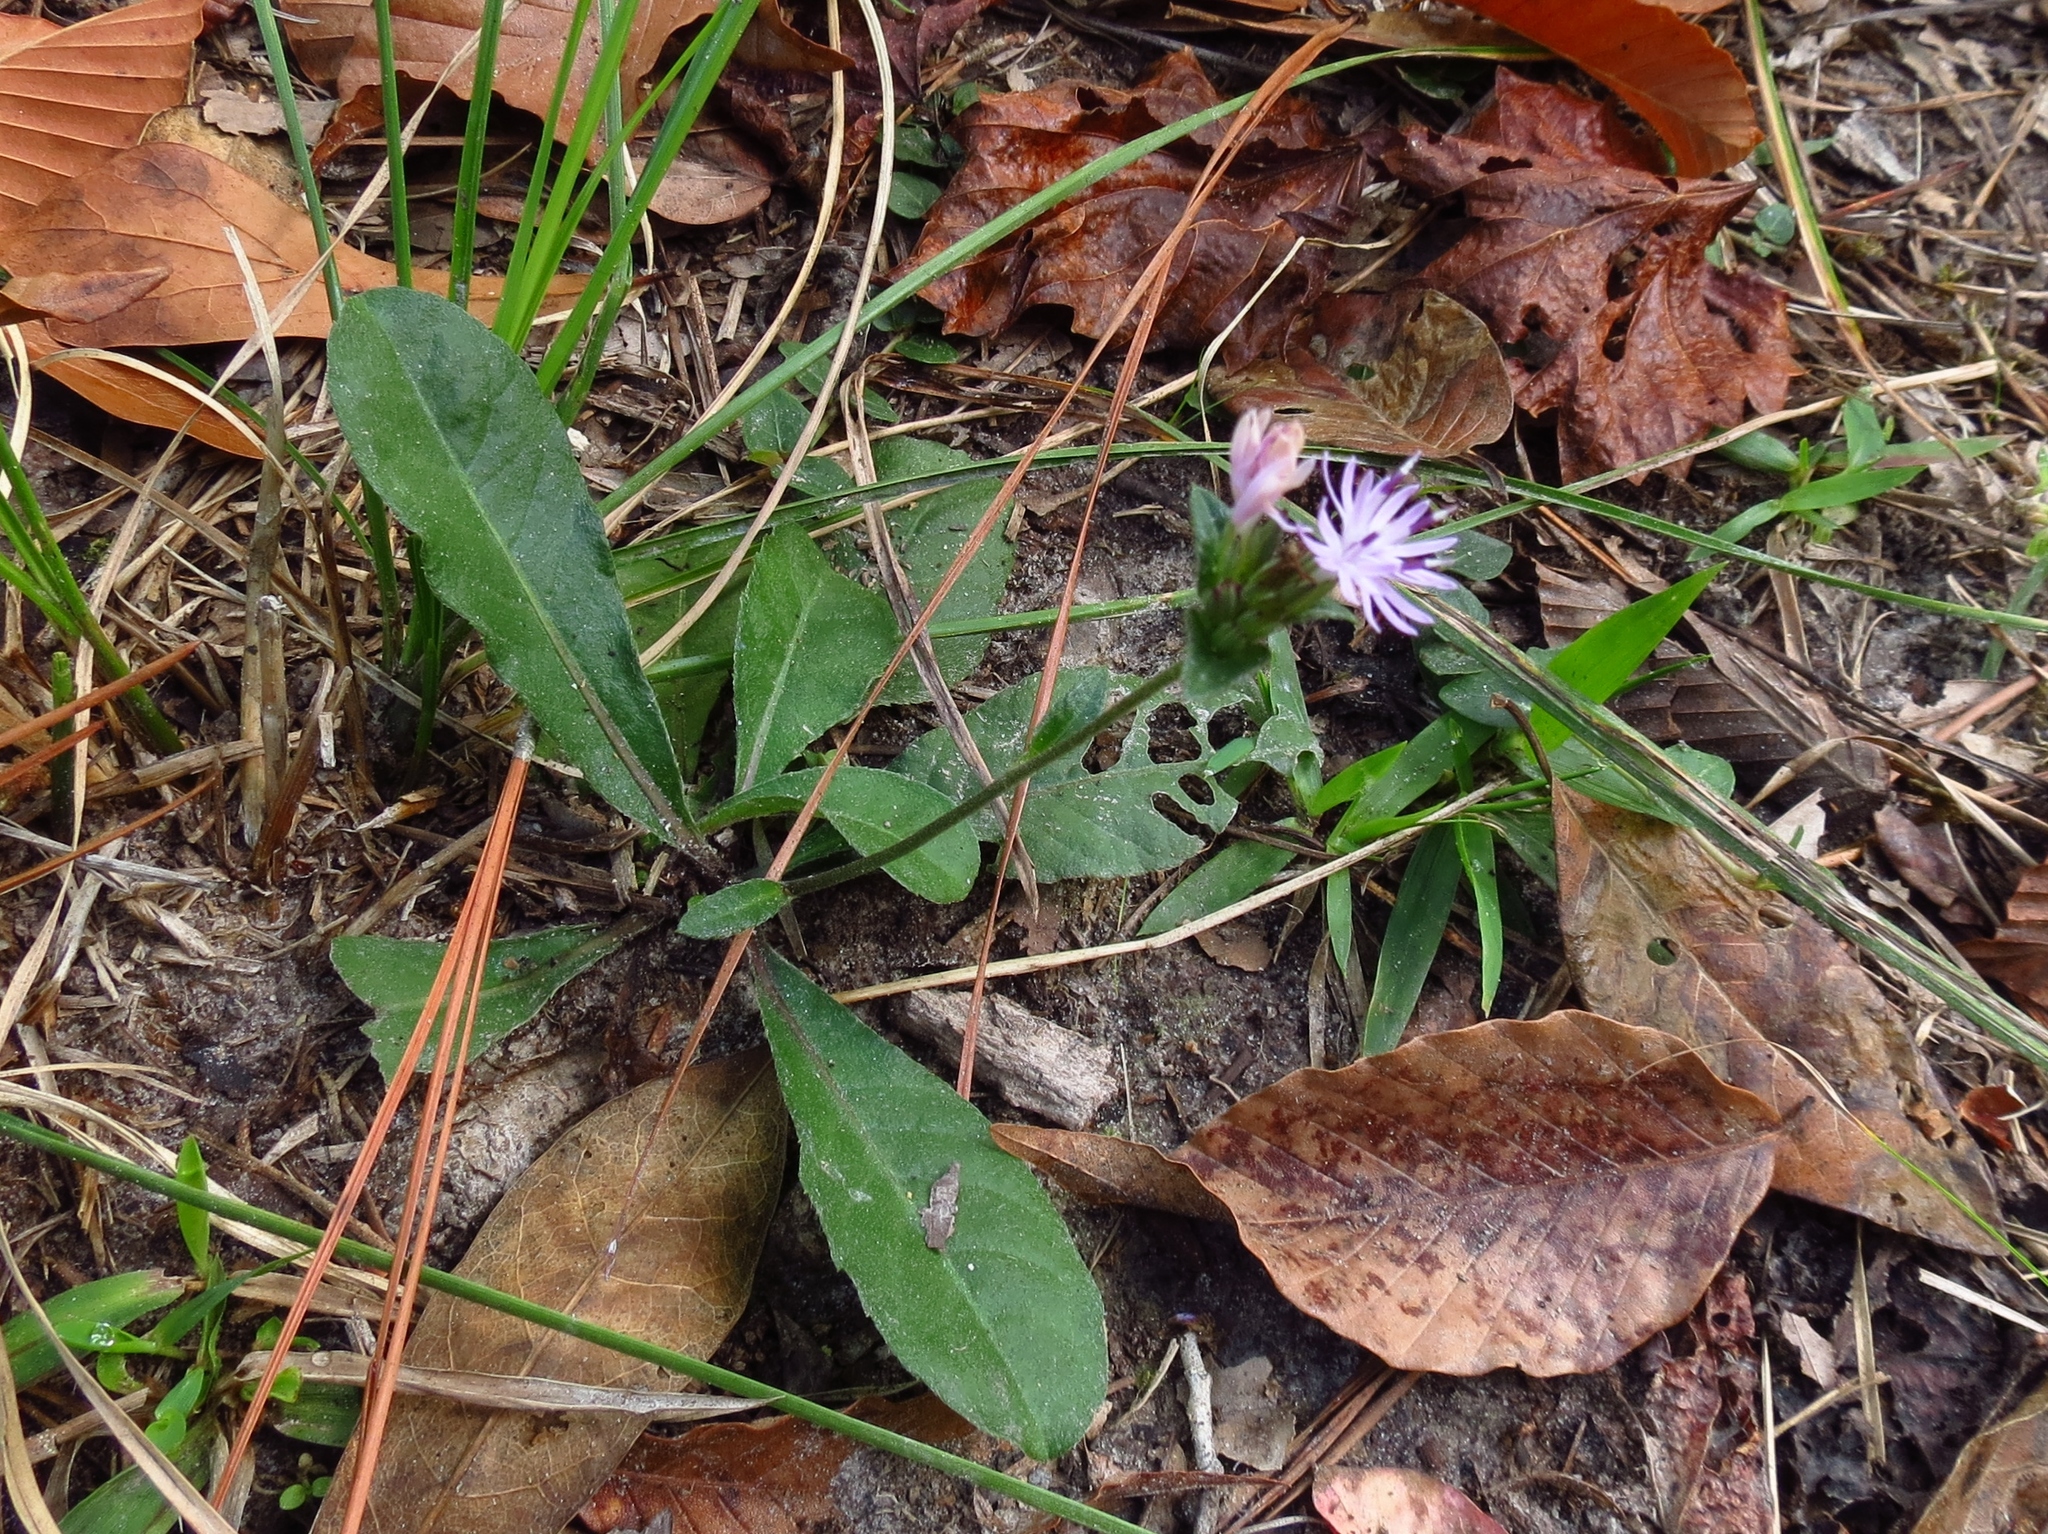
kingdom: Plantae
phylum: Tracheophyta
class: Magnoliopsida
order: Asterales
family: Asteraceae
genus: Elephantopus
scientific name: Elephantopus nudatus
